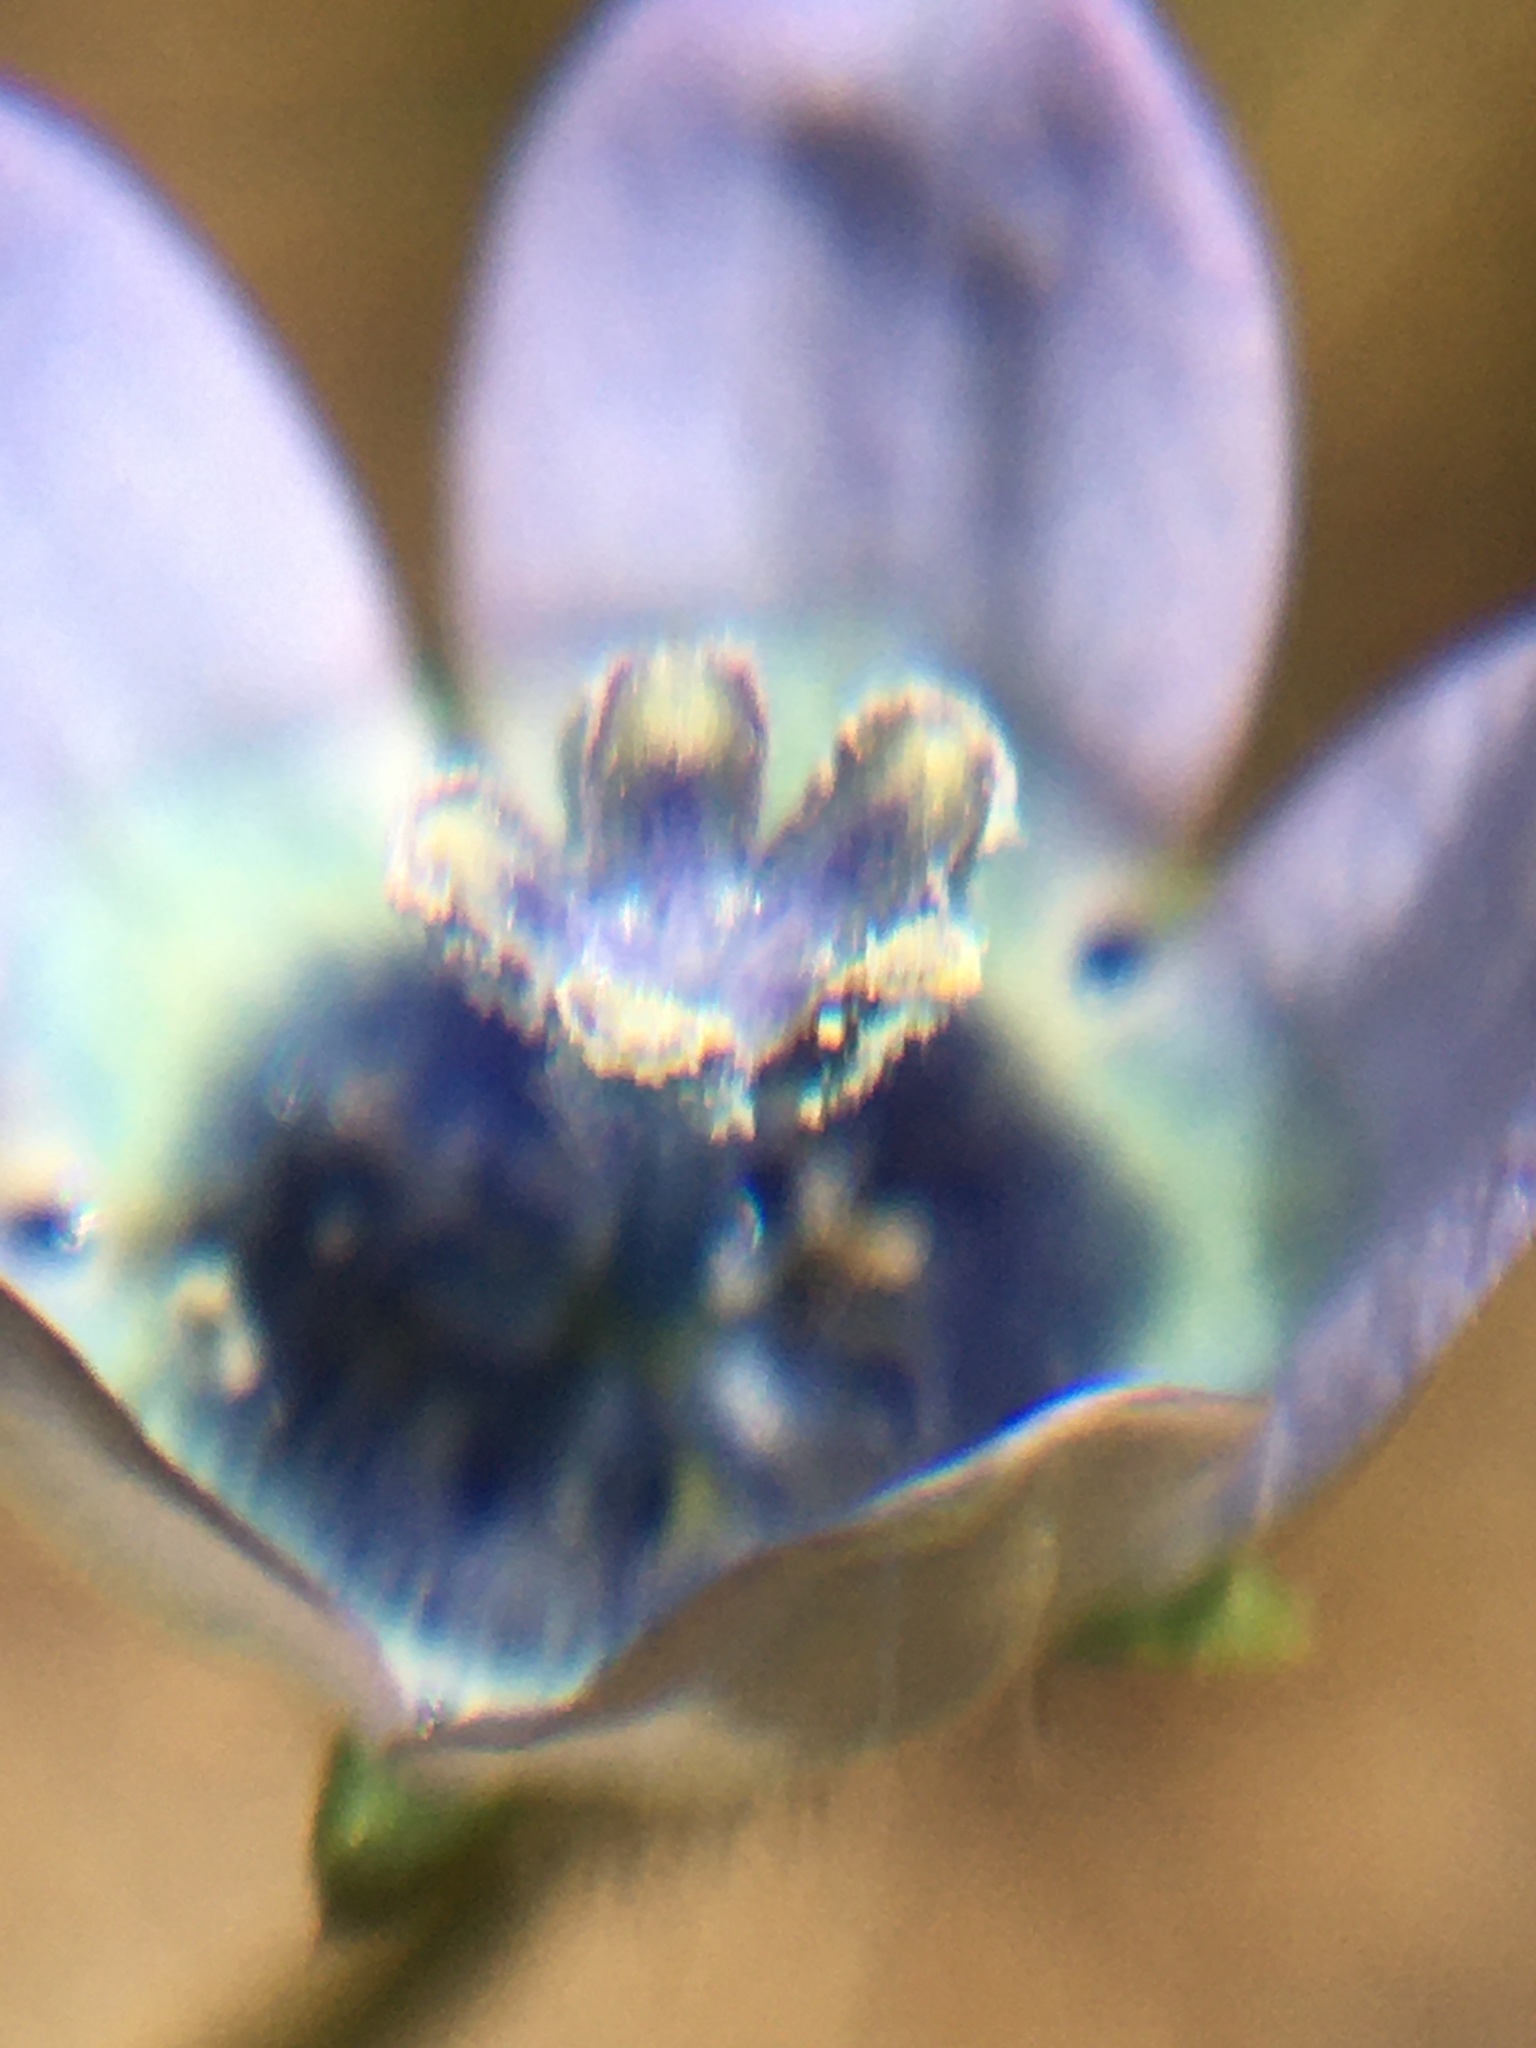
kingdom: Plantae
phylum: Tracheophyta
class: Magnoliopsida
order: Asterales
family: Campanulaceae
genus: Wahlenbergia
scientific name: Wahlenbergia capensis
